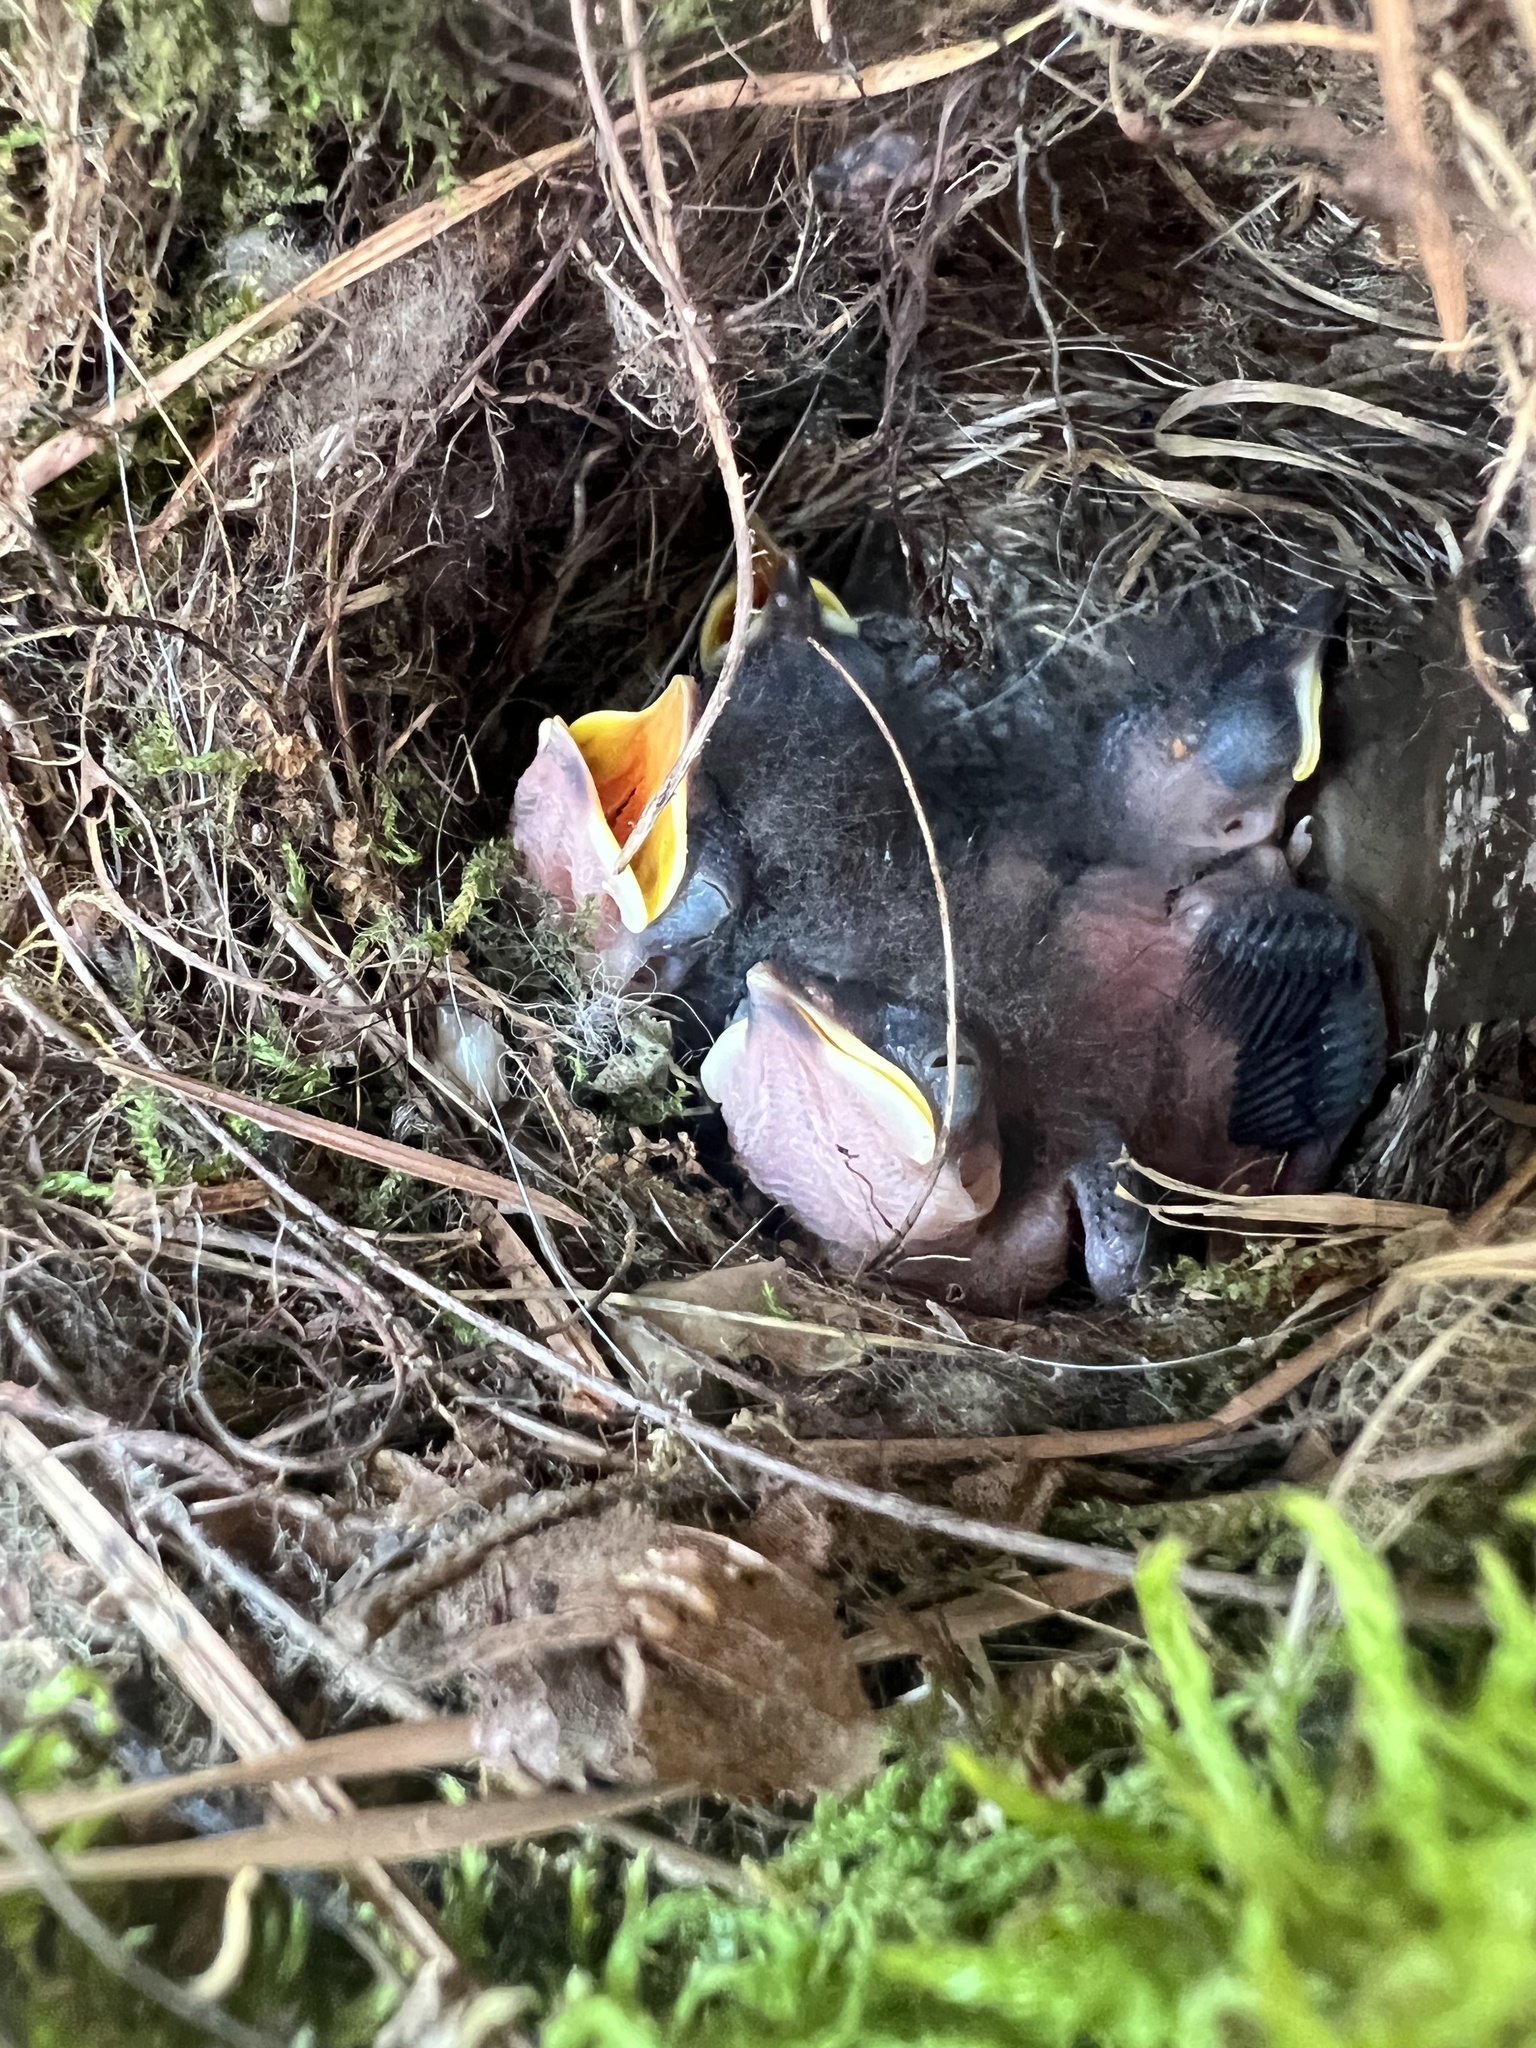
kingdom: Animalia
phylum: Chordata
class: Aves
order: Passeriformes
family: Troglodytidae
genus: Thryothorus
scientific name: Thryothorus ludovicianus
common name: Carolina wren
